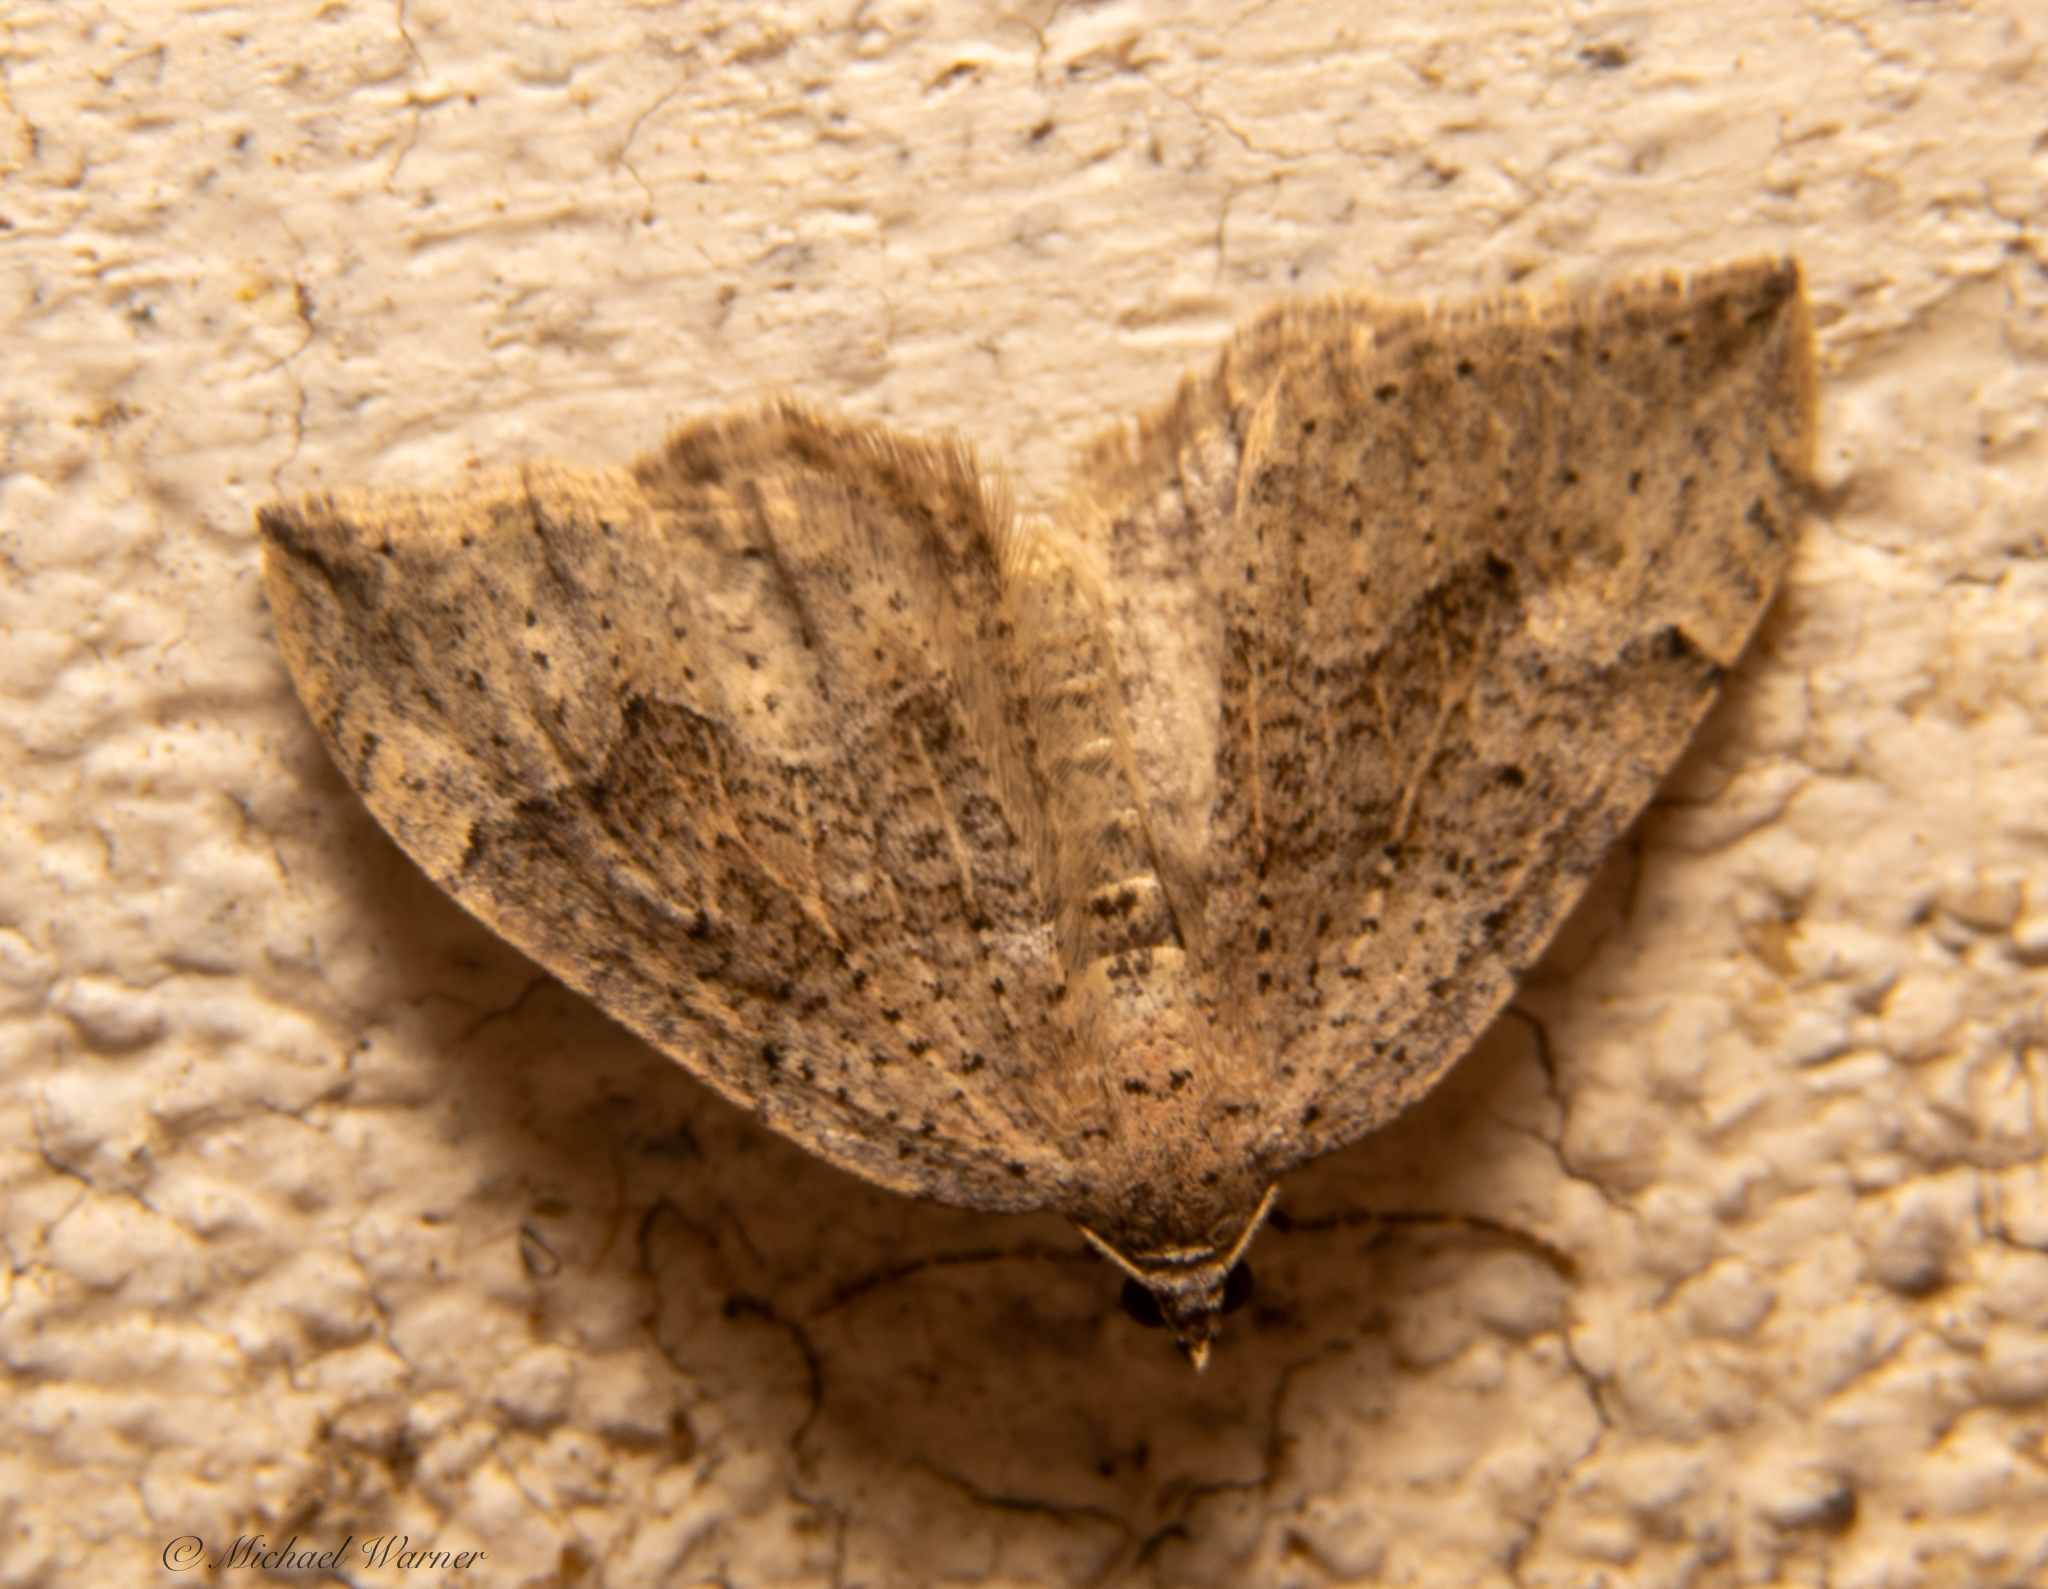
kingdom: Animalia
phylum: Arthropoda
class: Insecta
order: Lepidoptera
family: Geometridae
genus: Zenophleps
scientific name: Zenophleps lignicolorata
